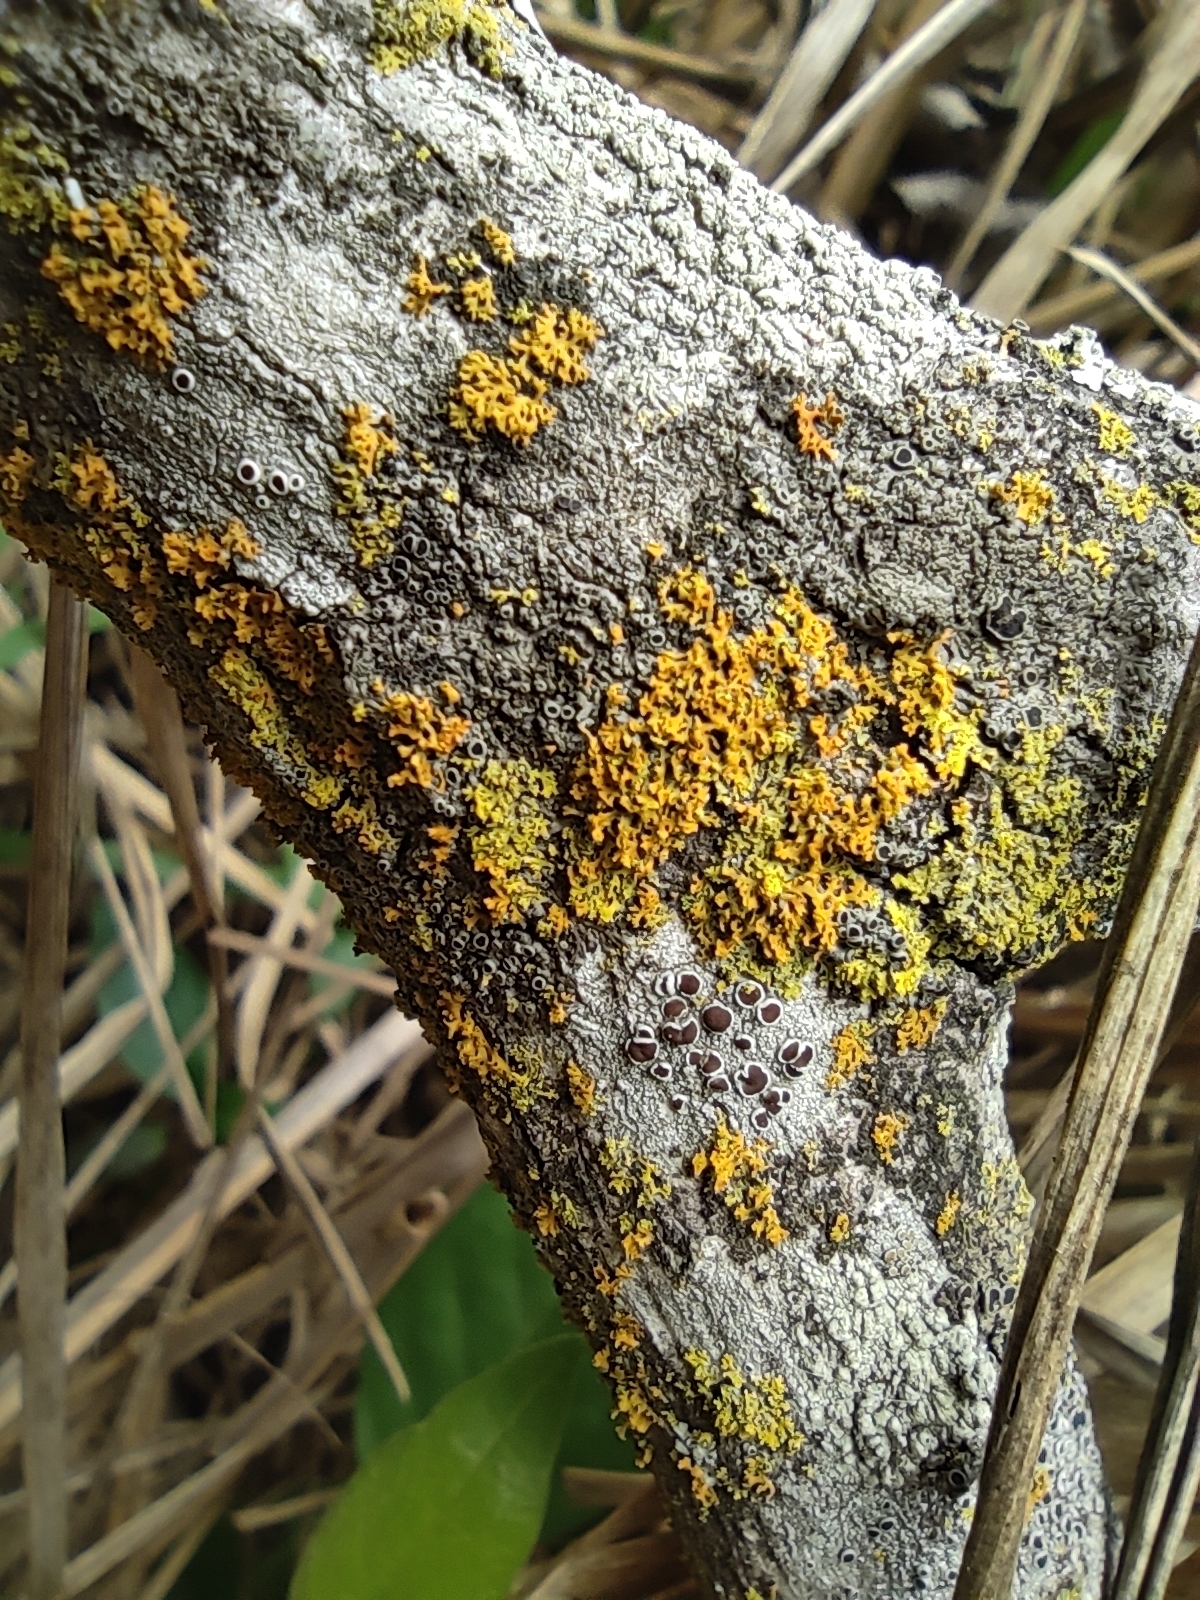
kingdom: Fungi
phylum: Ascomycota
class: Lecanoromycetes
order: Teloschistales
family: Teloschistaceae
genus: Gallowayella
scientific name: Gallowayella weberi
